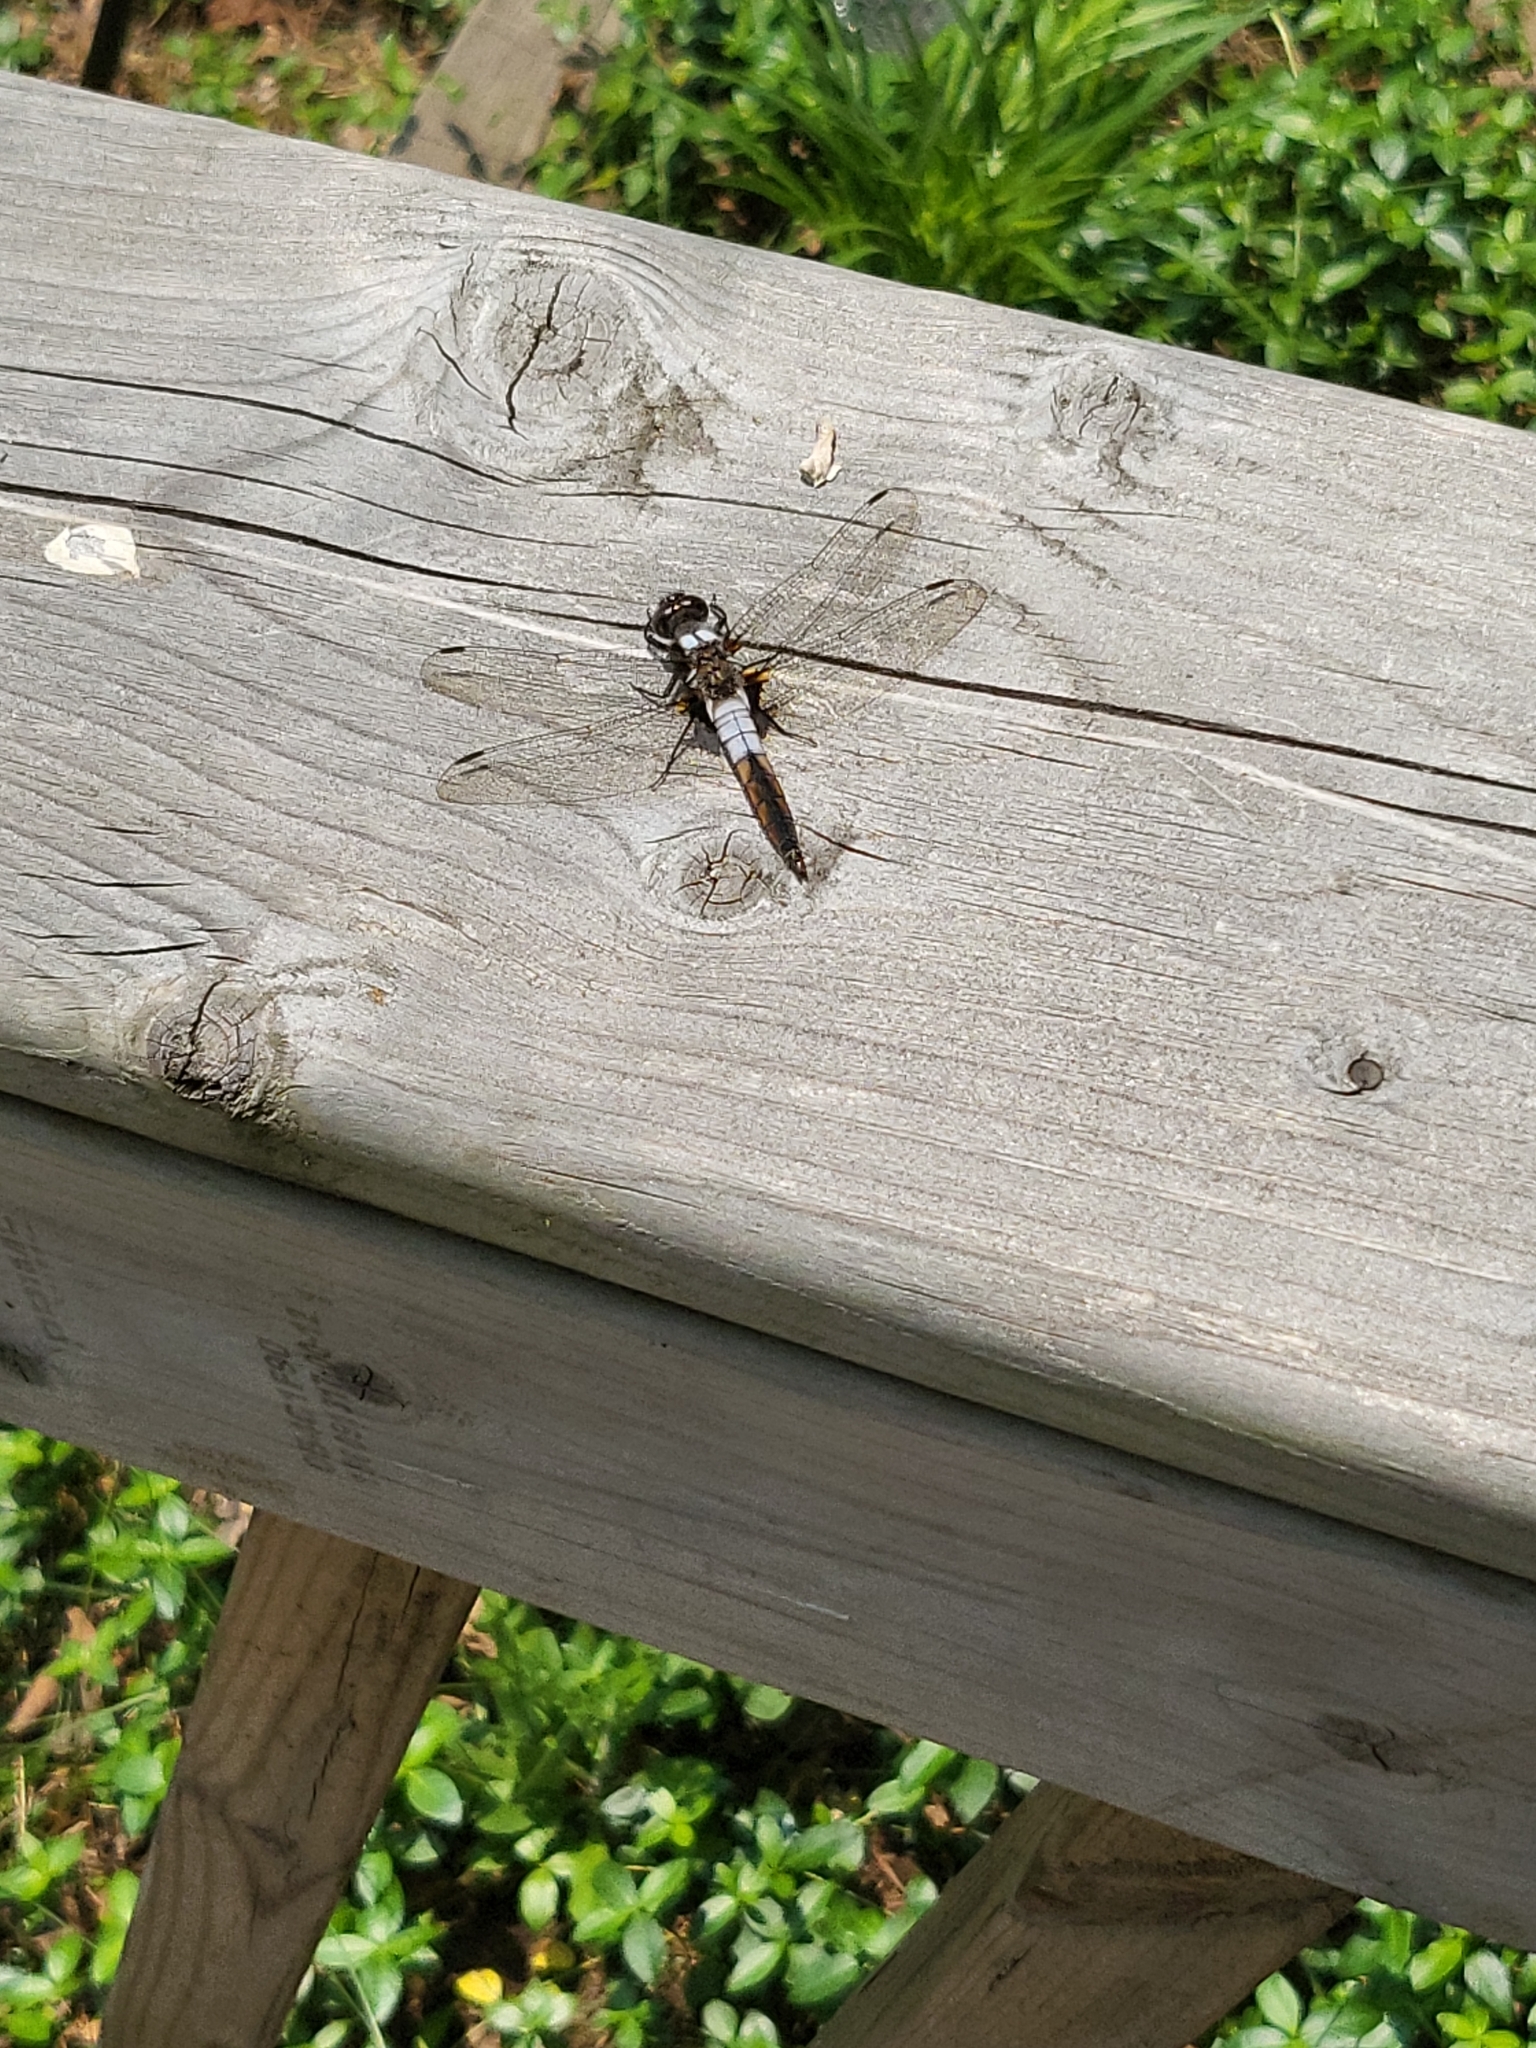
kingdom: Animalia
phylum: Arthropoda
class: Insecta
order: Odonata
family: Libellulidae
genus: Ladona
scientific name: Ladona julia
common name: Chalk-fronted corporal
